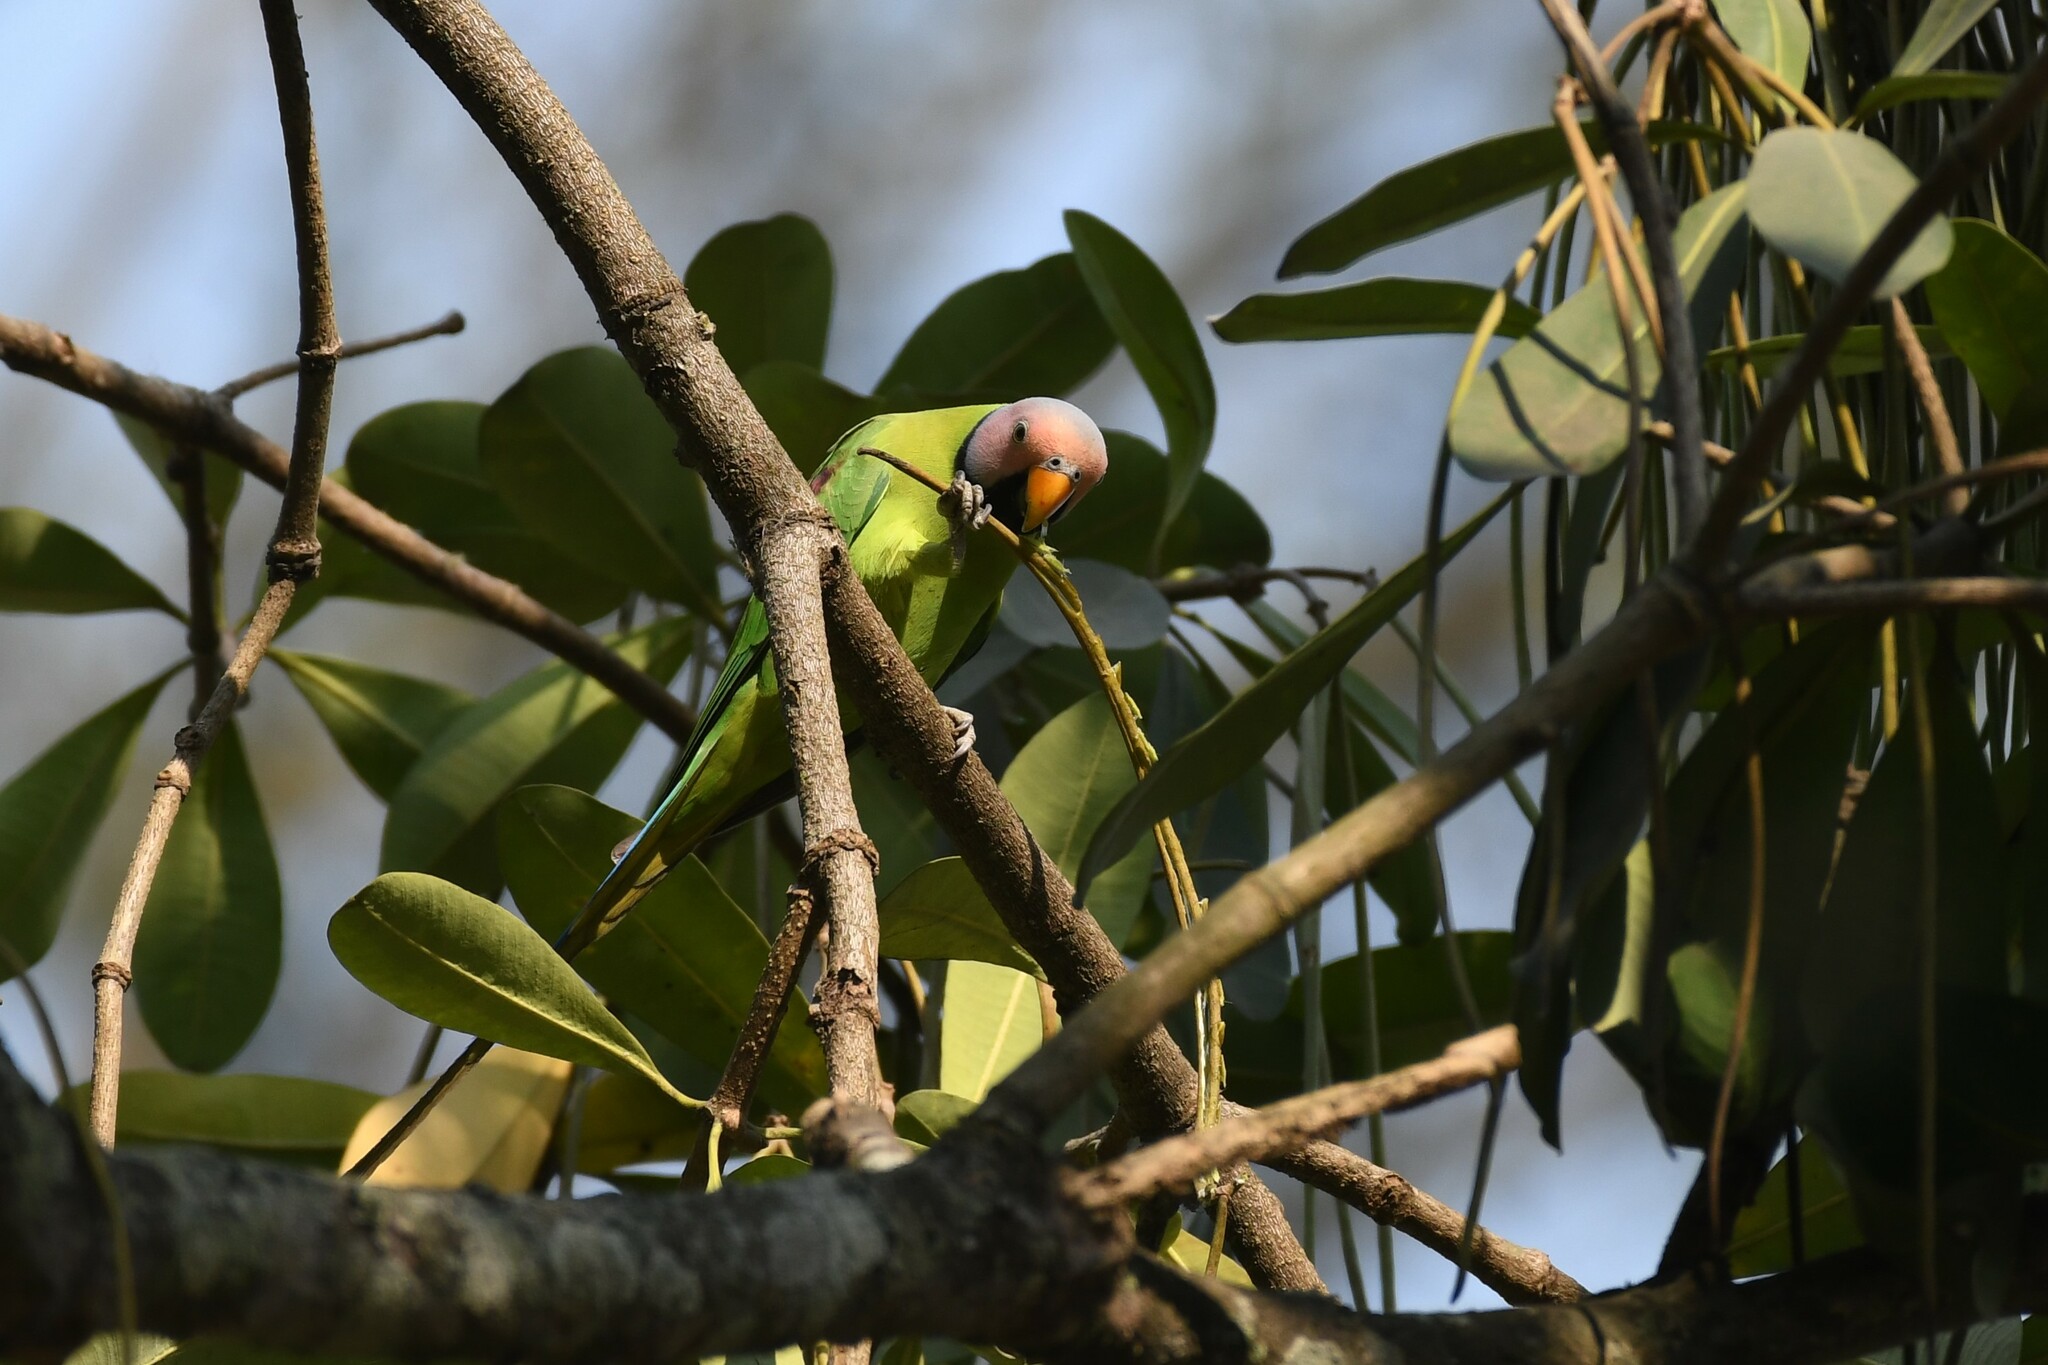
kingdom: Animalia
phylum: Chordata
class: Aves
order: Psittaciformes
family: Psittacidae
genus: Psittacula
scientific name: Psittacula roseata
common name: Blossom-headed parakeet
